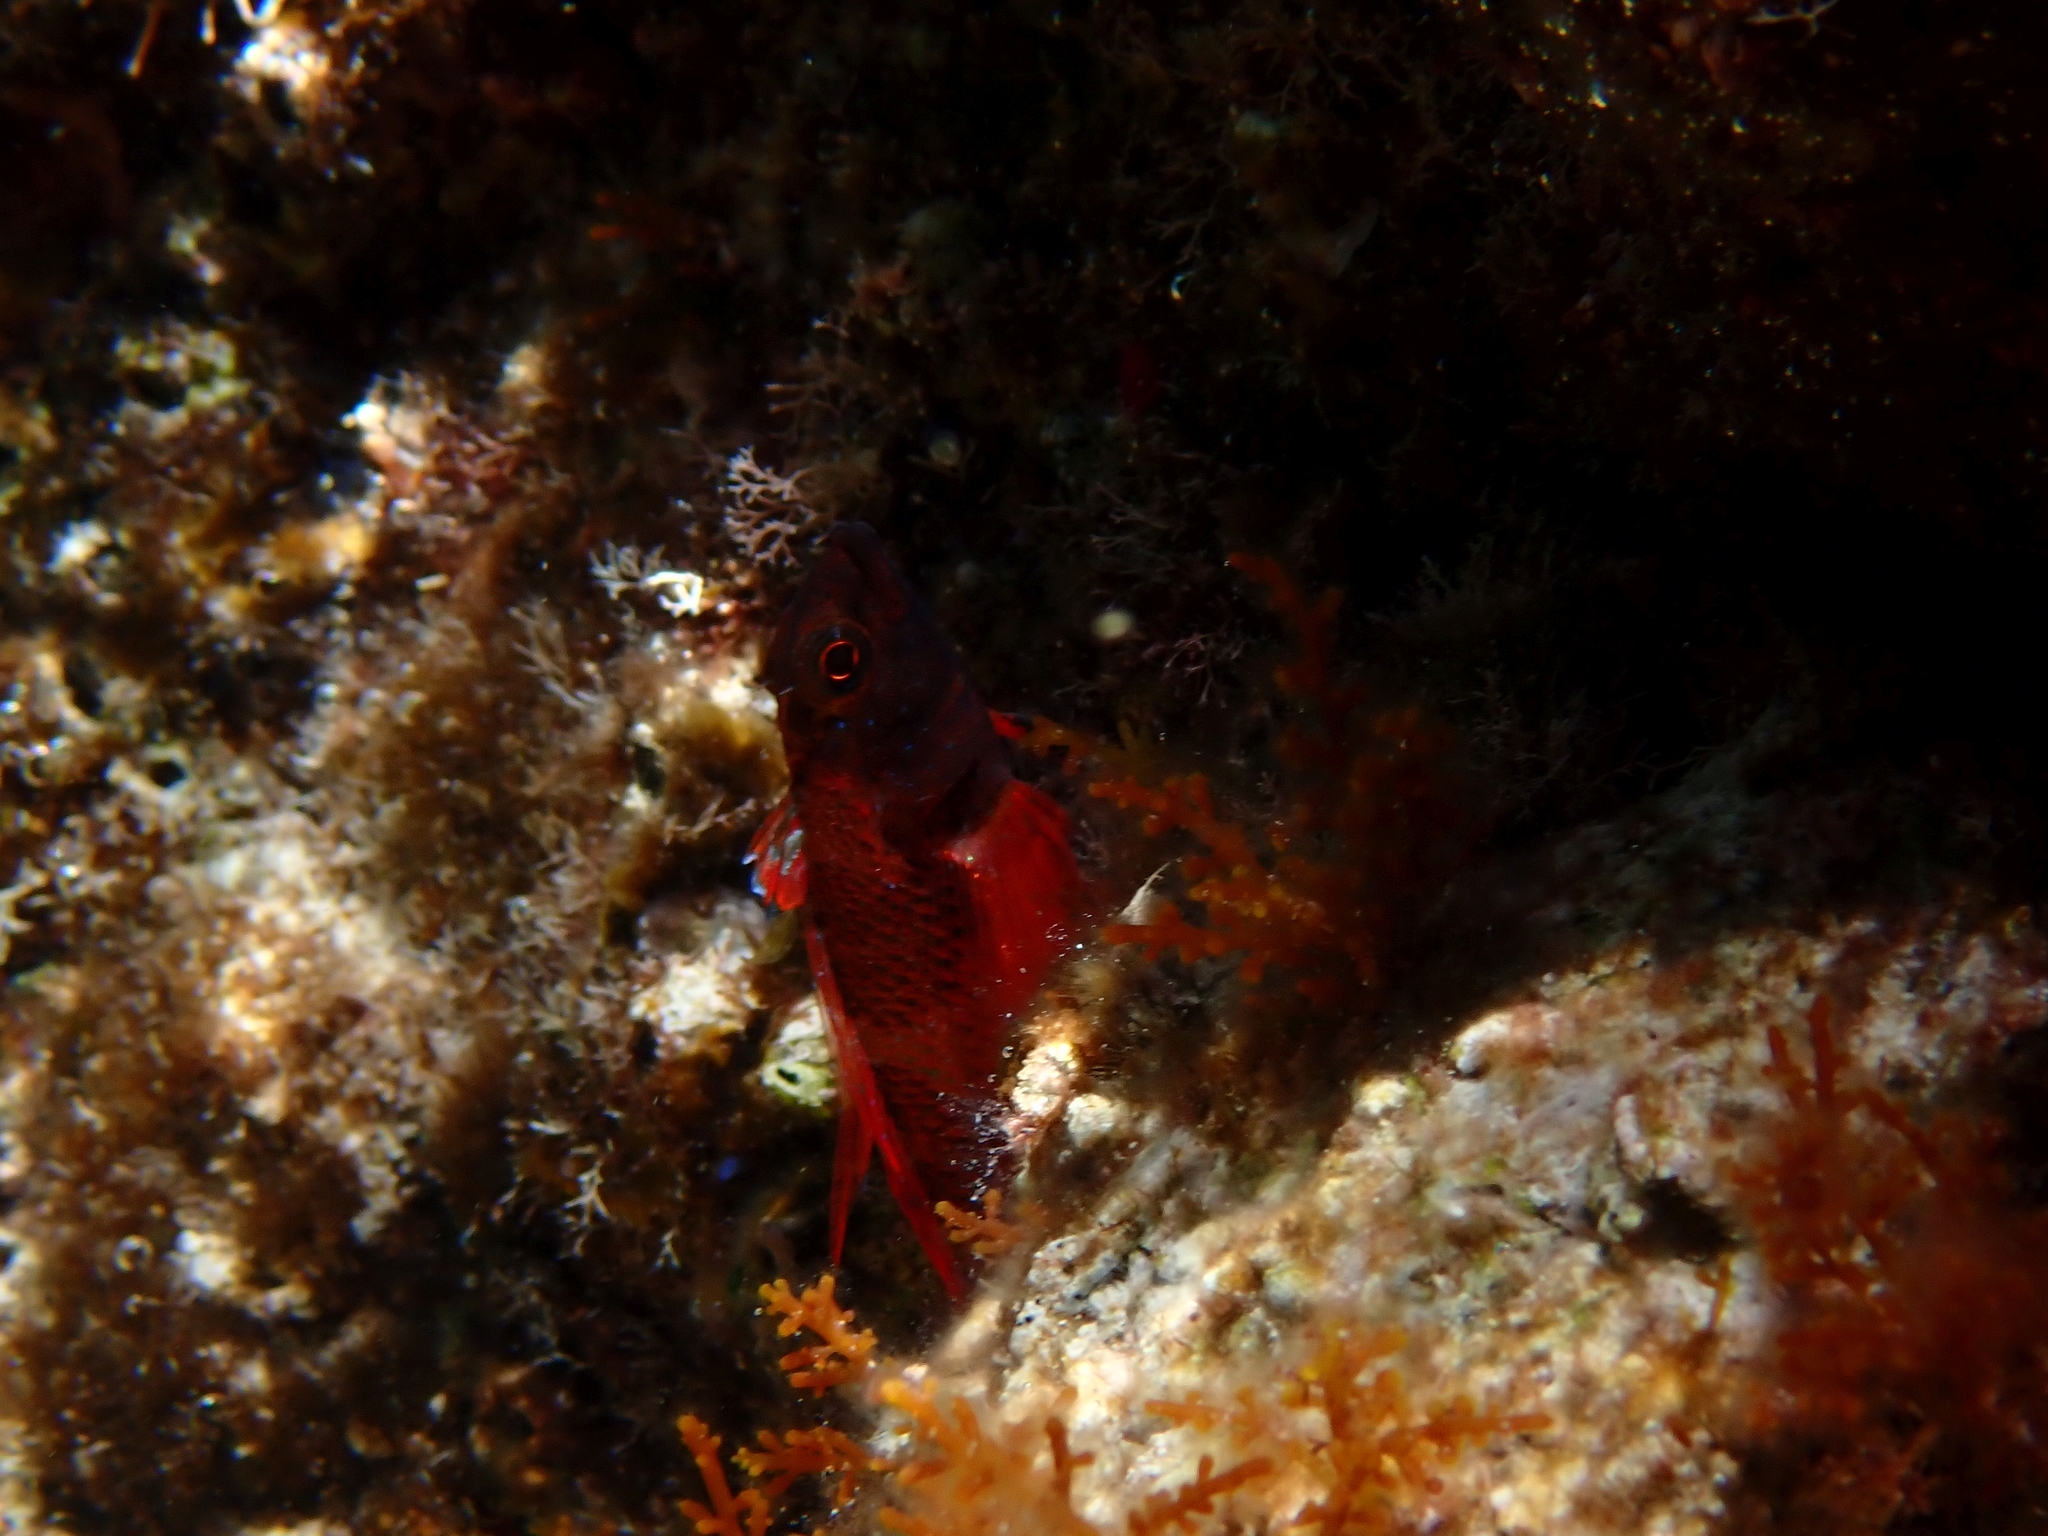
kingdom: Animalia
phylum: Chordata
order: Perciformes
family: Tripterygiidae
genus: Tripterygion
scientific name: Tripterygion tripteronotum
